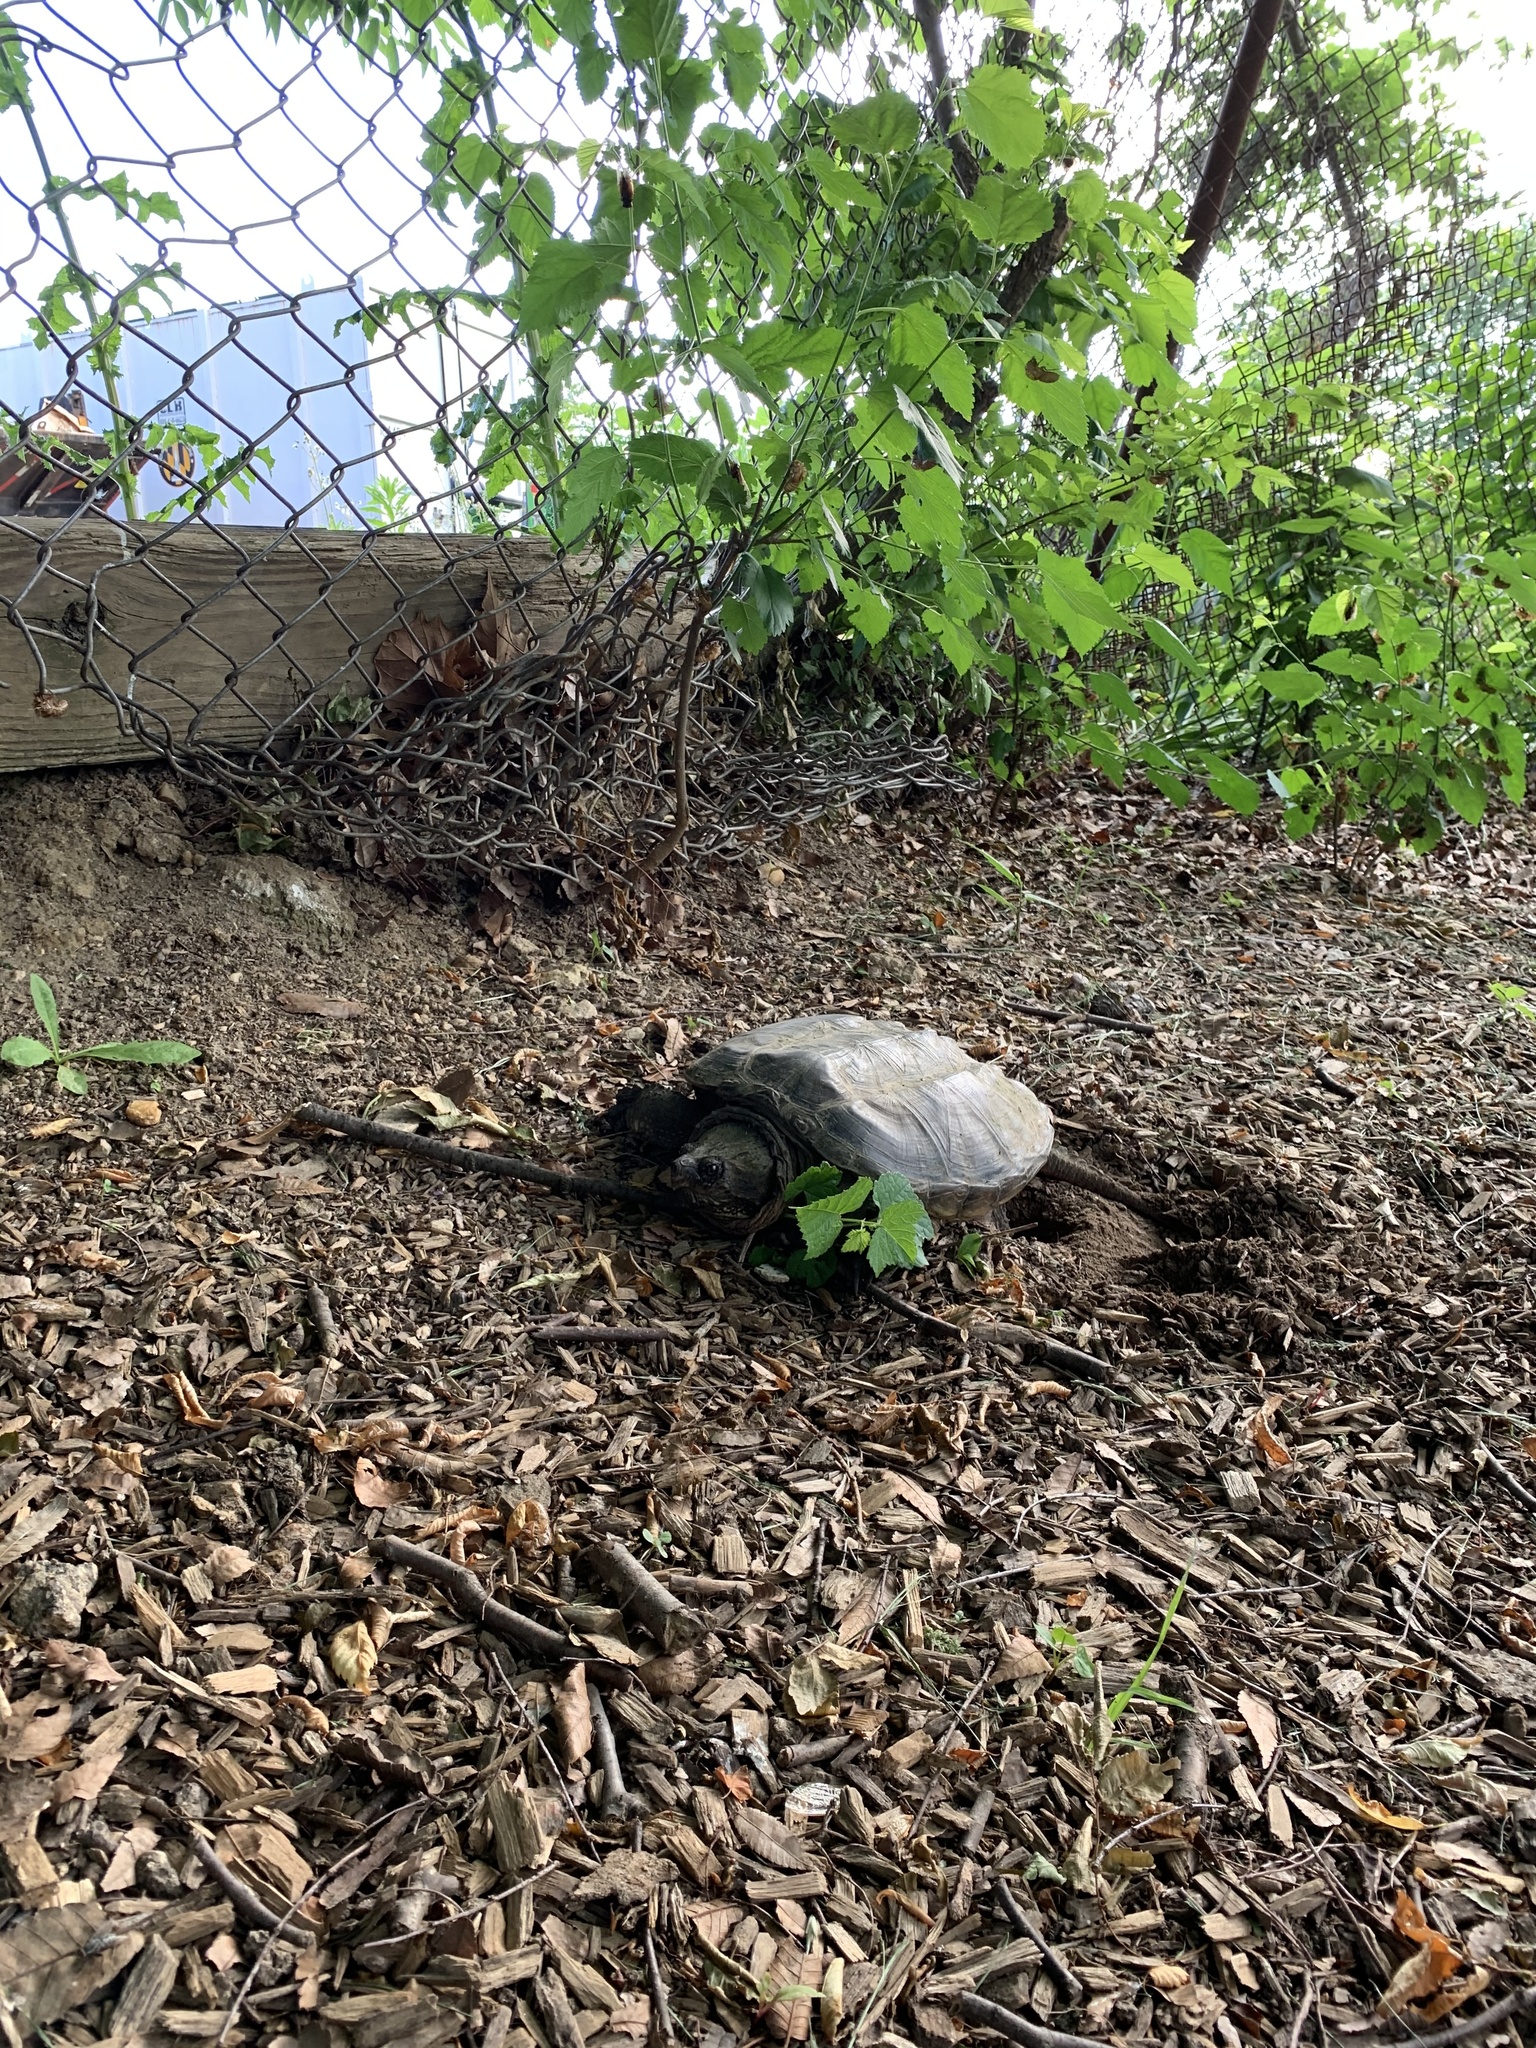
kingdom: Animalia
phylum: Chordata
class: Testudines
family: Chelydridae
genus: Chelydra
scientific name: Chelydra serpentina
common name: Common snapping turtle
